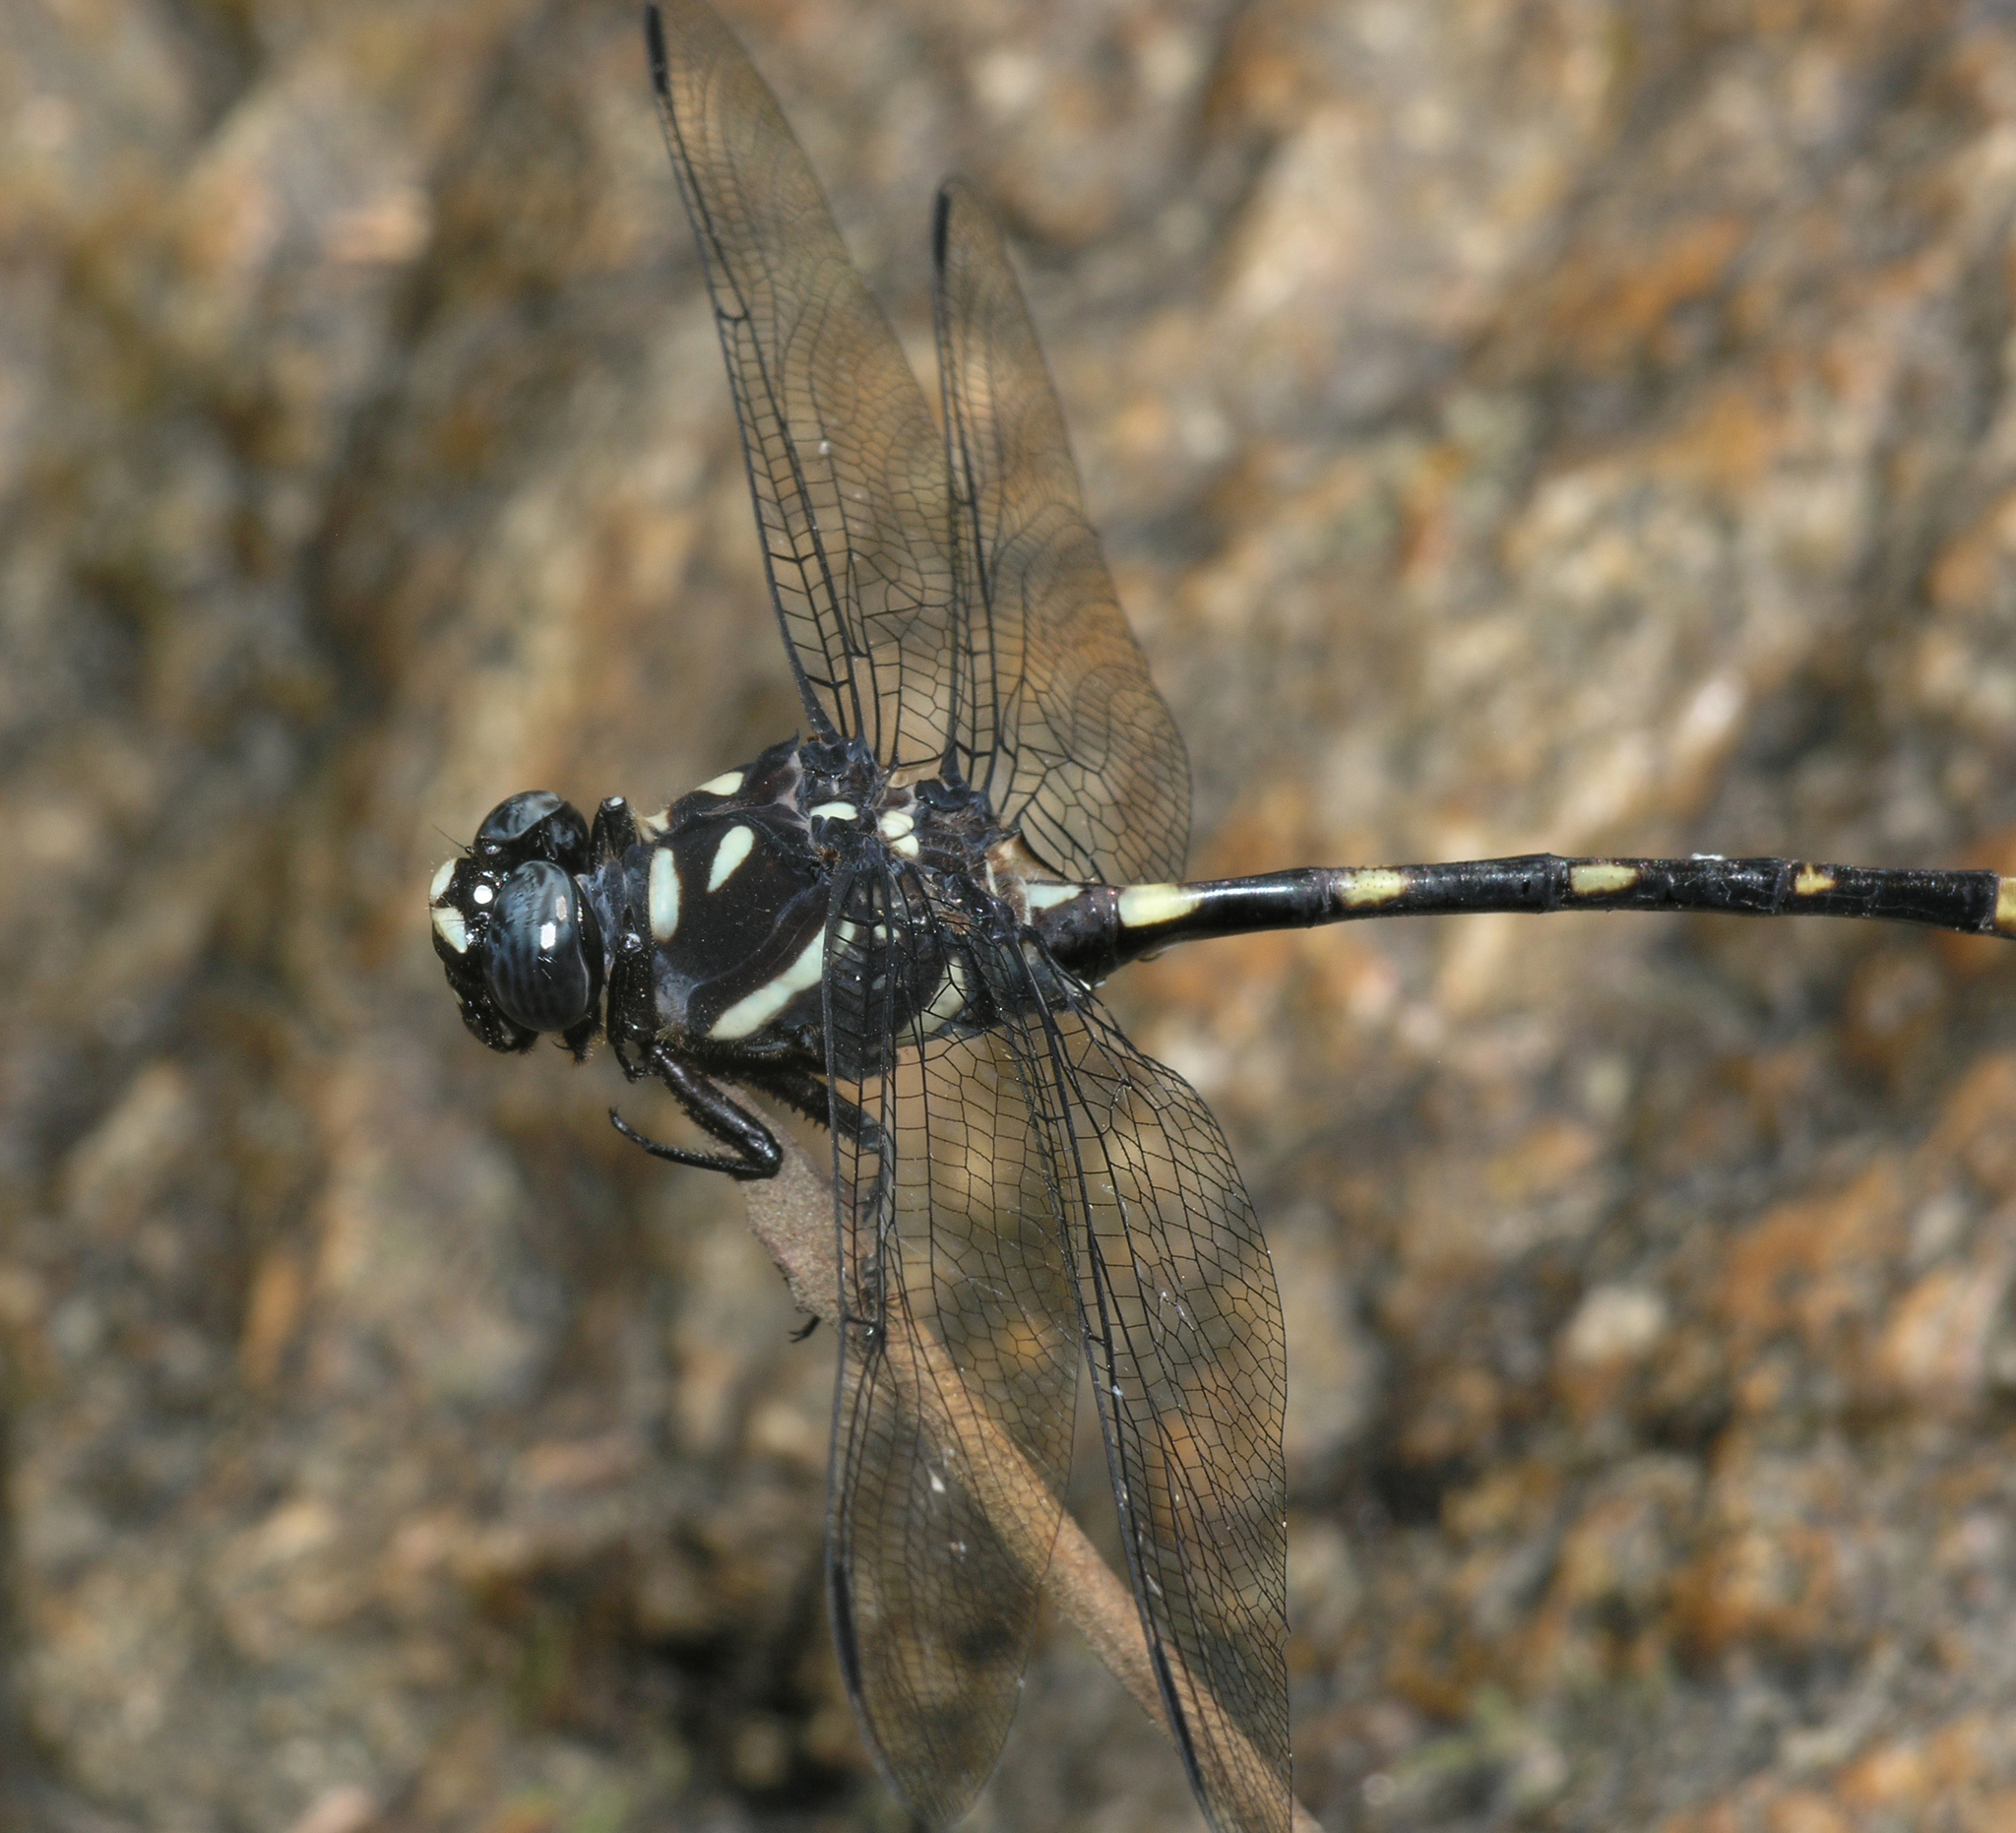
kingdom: Animalia
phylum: Arthropoda
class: Insecta
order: Odonata
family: Gomphidae
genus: Gomphidia
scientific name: Gomphidia abbotti
